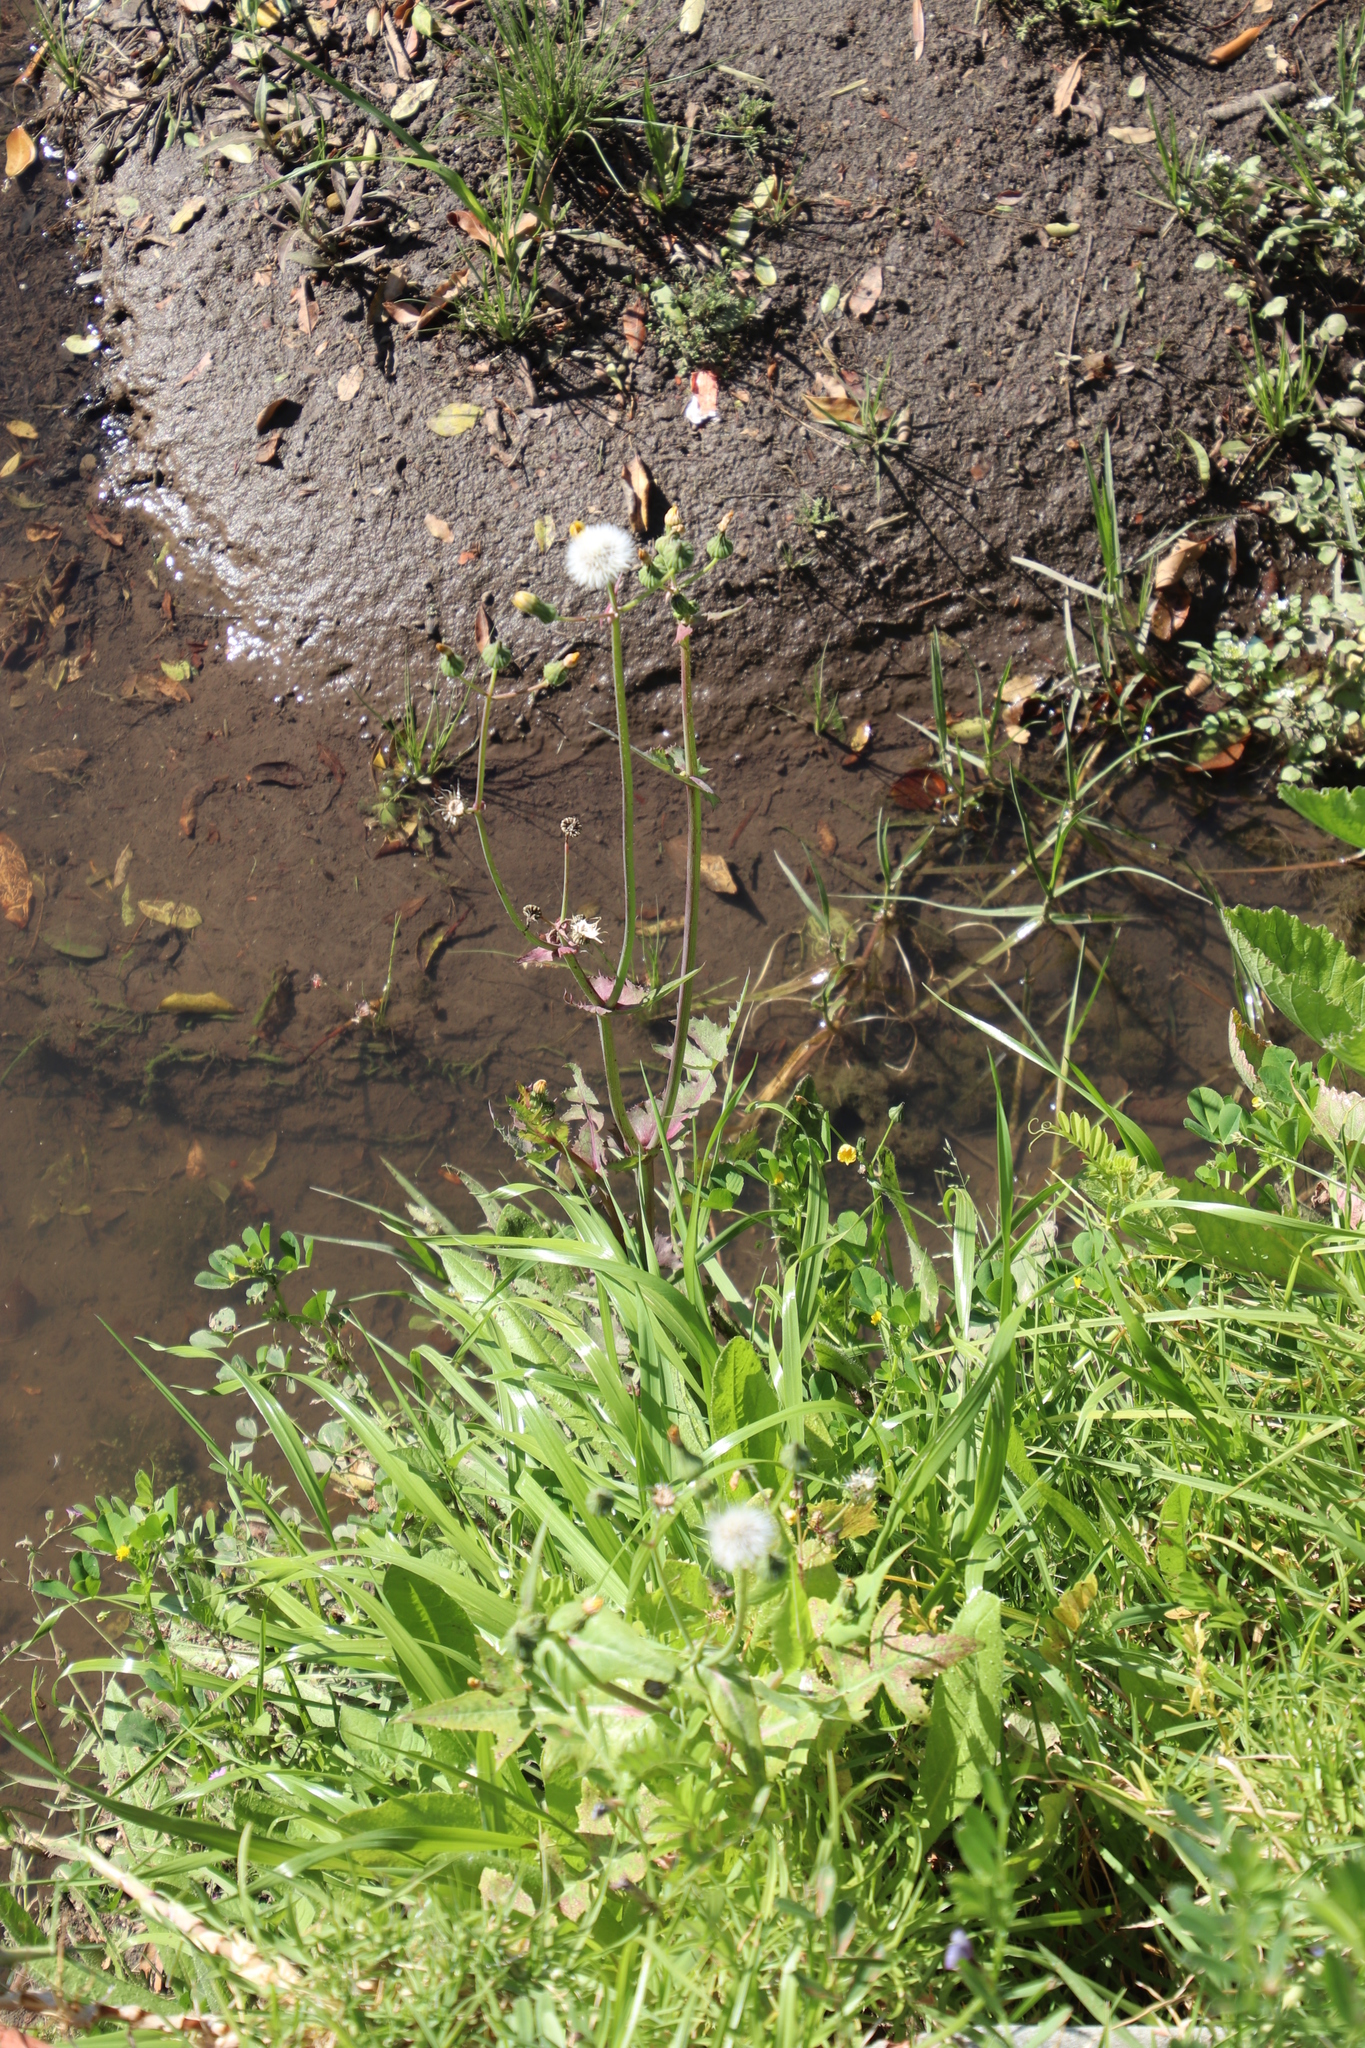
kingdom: Plantae
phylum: Tracheophyta
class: Magnoliopsida
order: Asterales
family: Asteraceae
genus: Sonchus
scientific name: Sonchus oleraceus
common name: Common sowthistle
